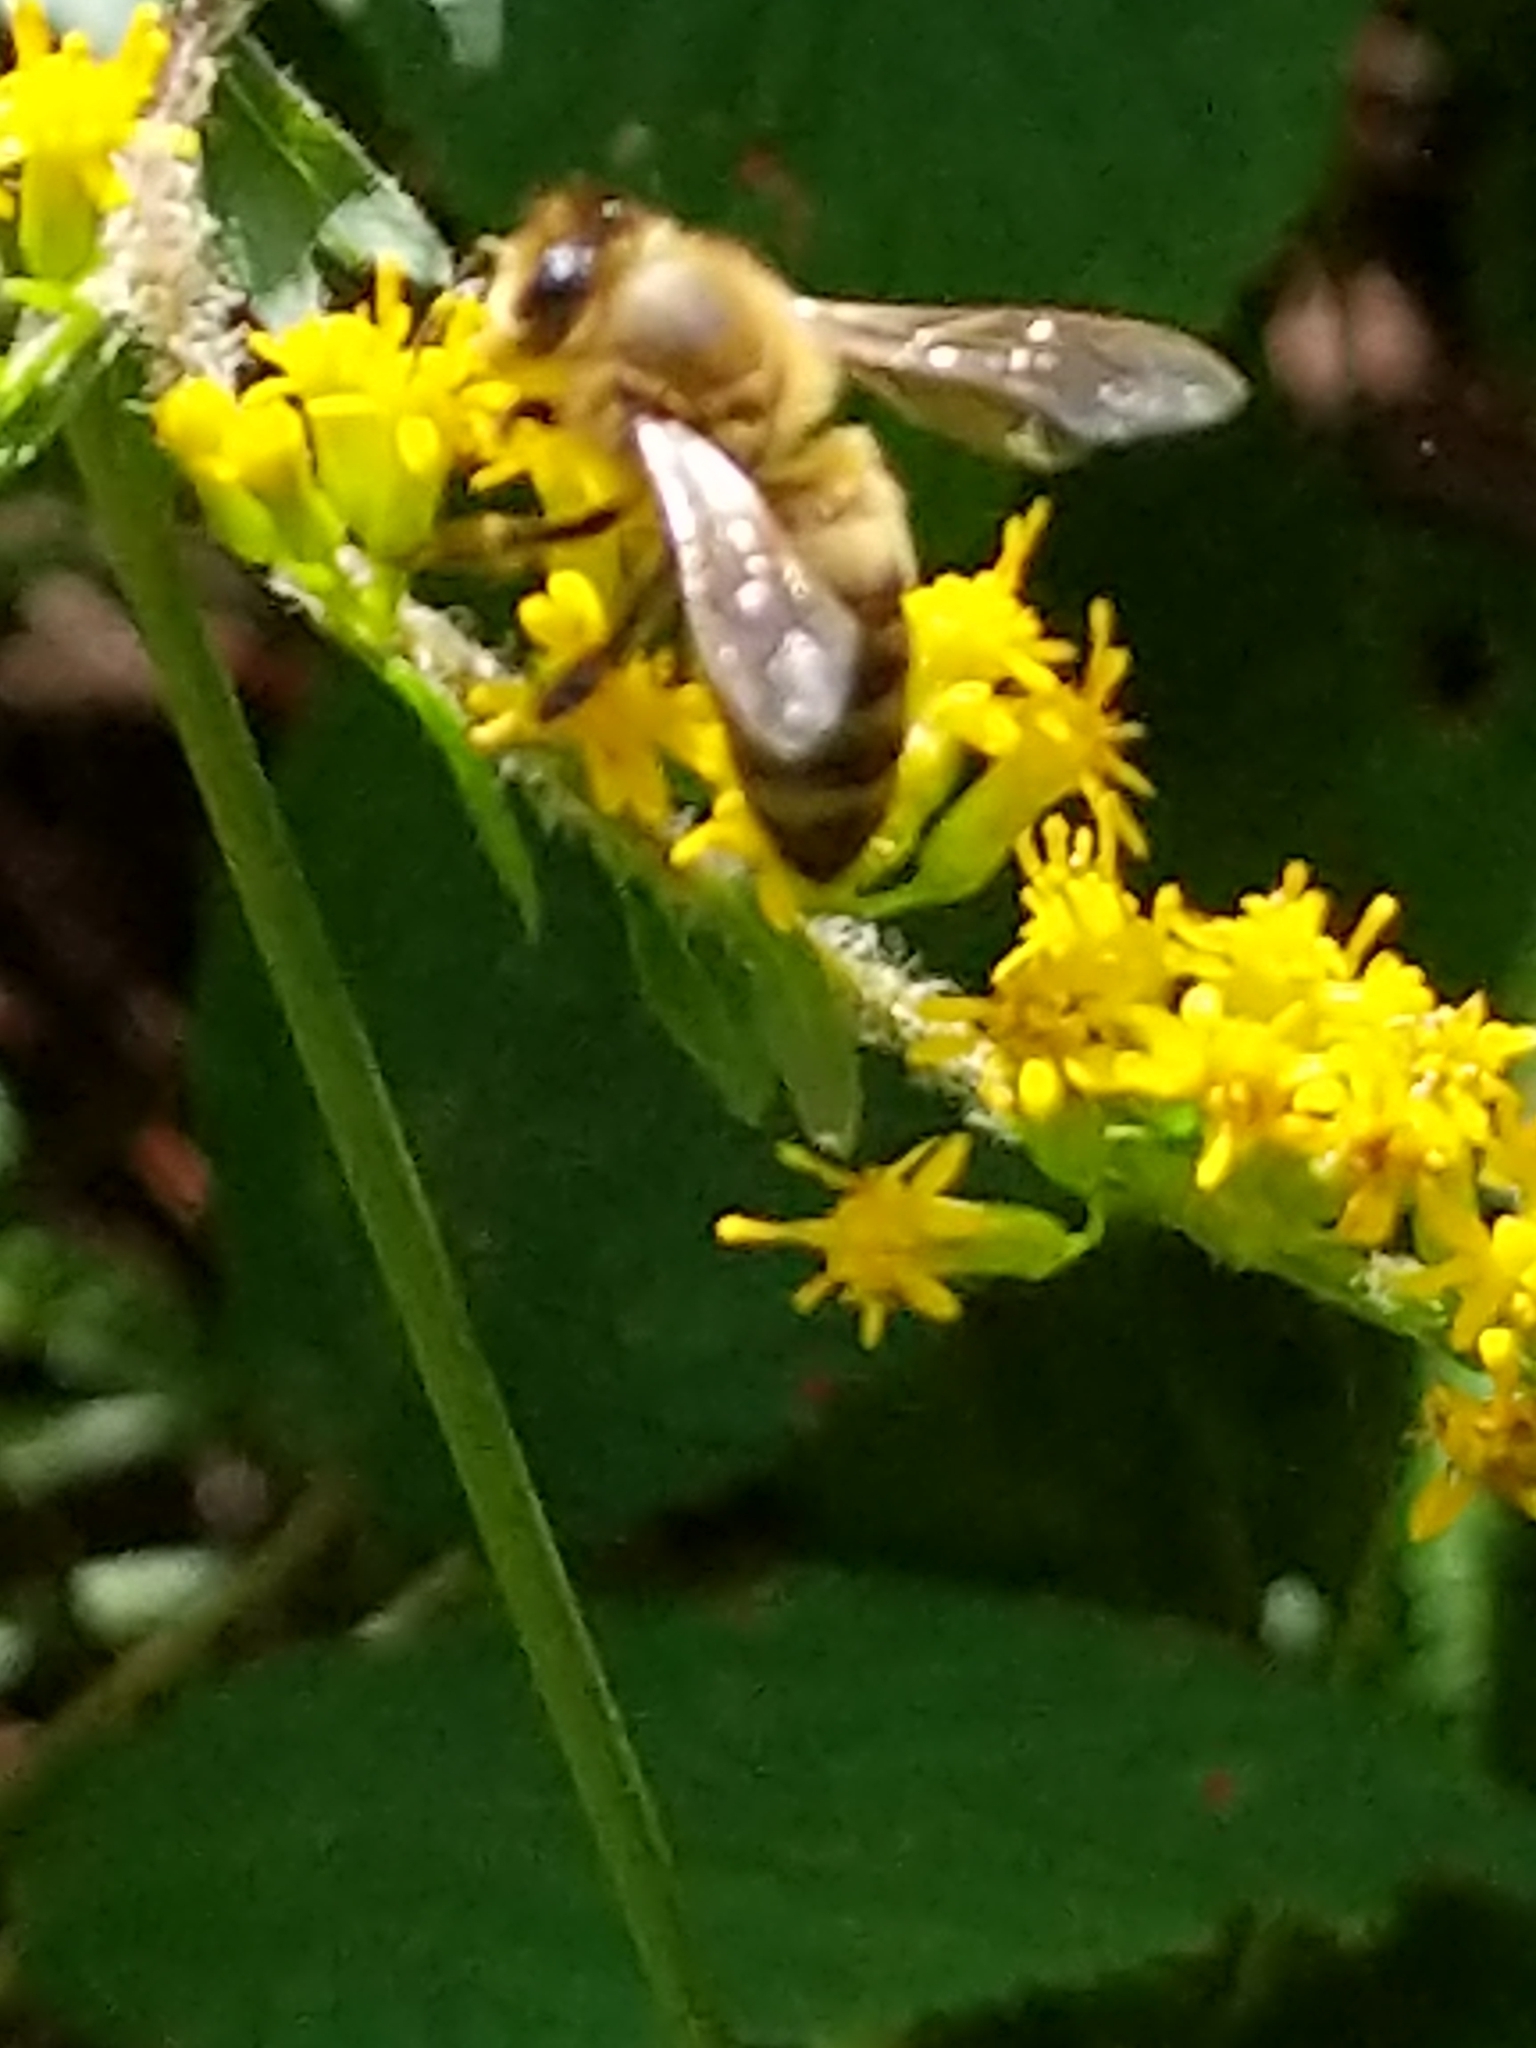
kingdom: Animalia
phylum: Arthropoda
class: Insecta
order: Hymenoptera
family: Apidae
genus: Apis
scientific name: Apis mellifera
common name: Honey bee
